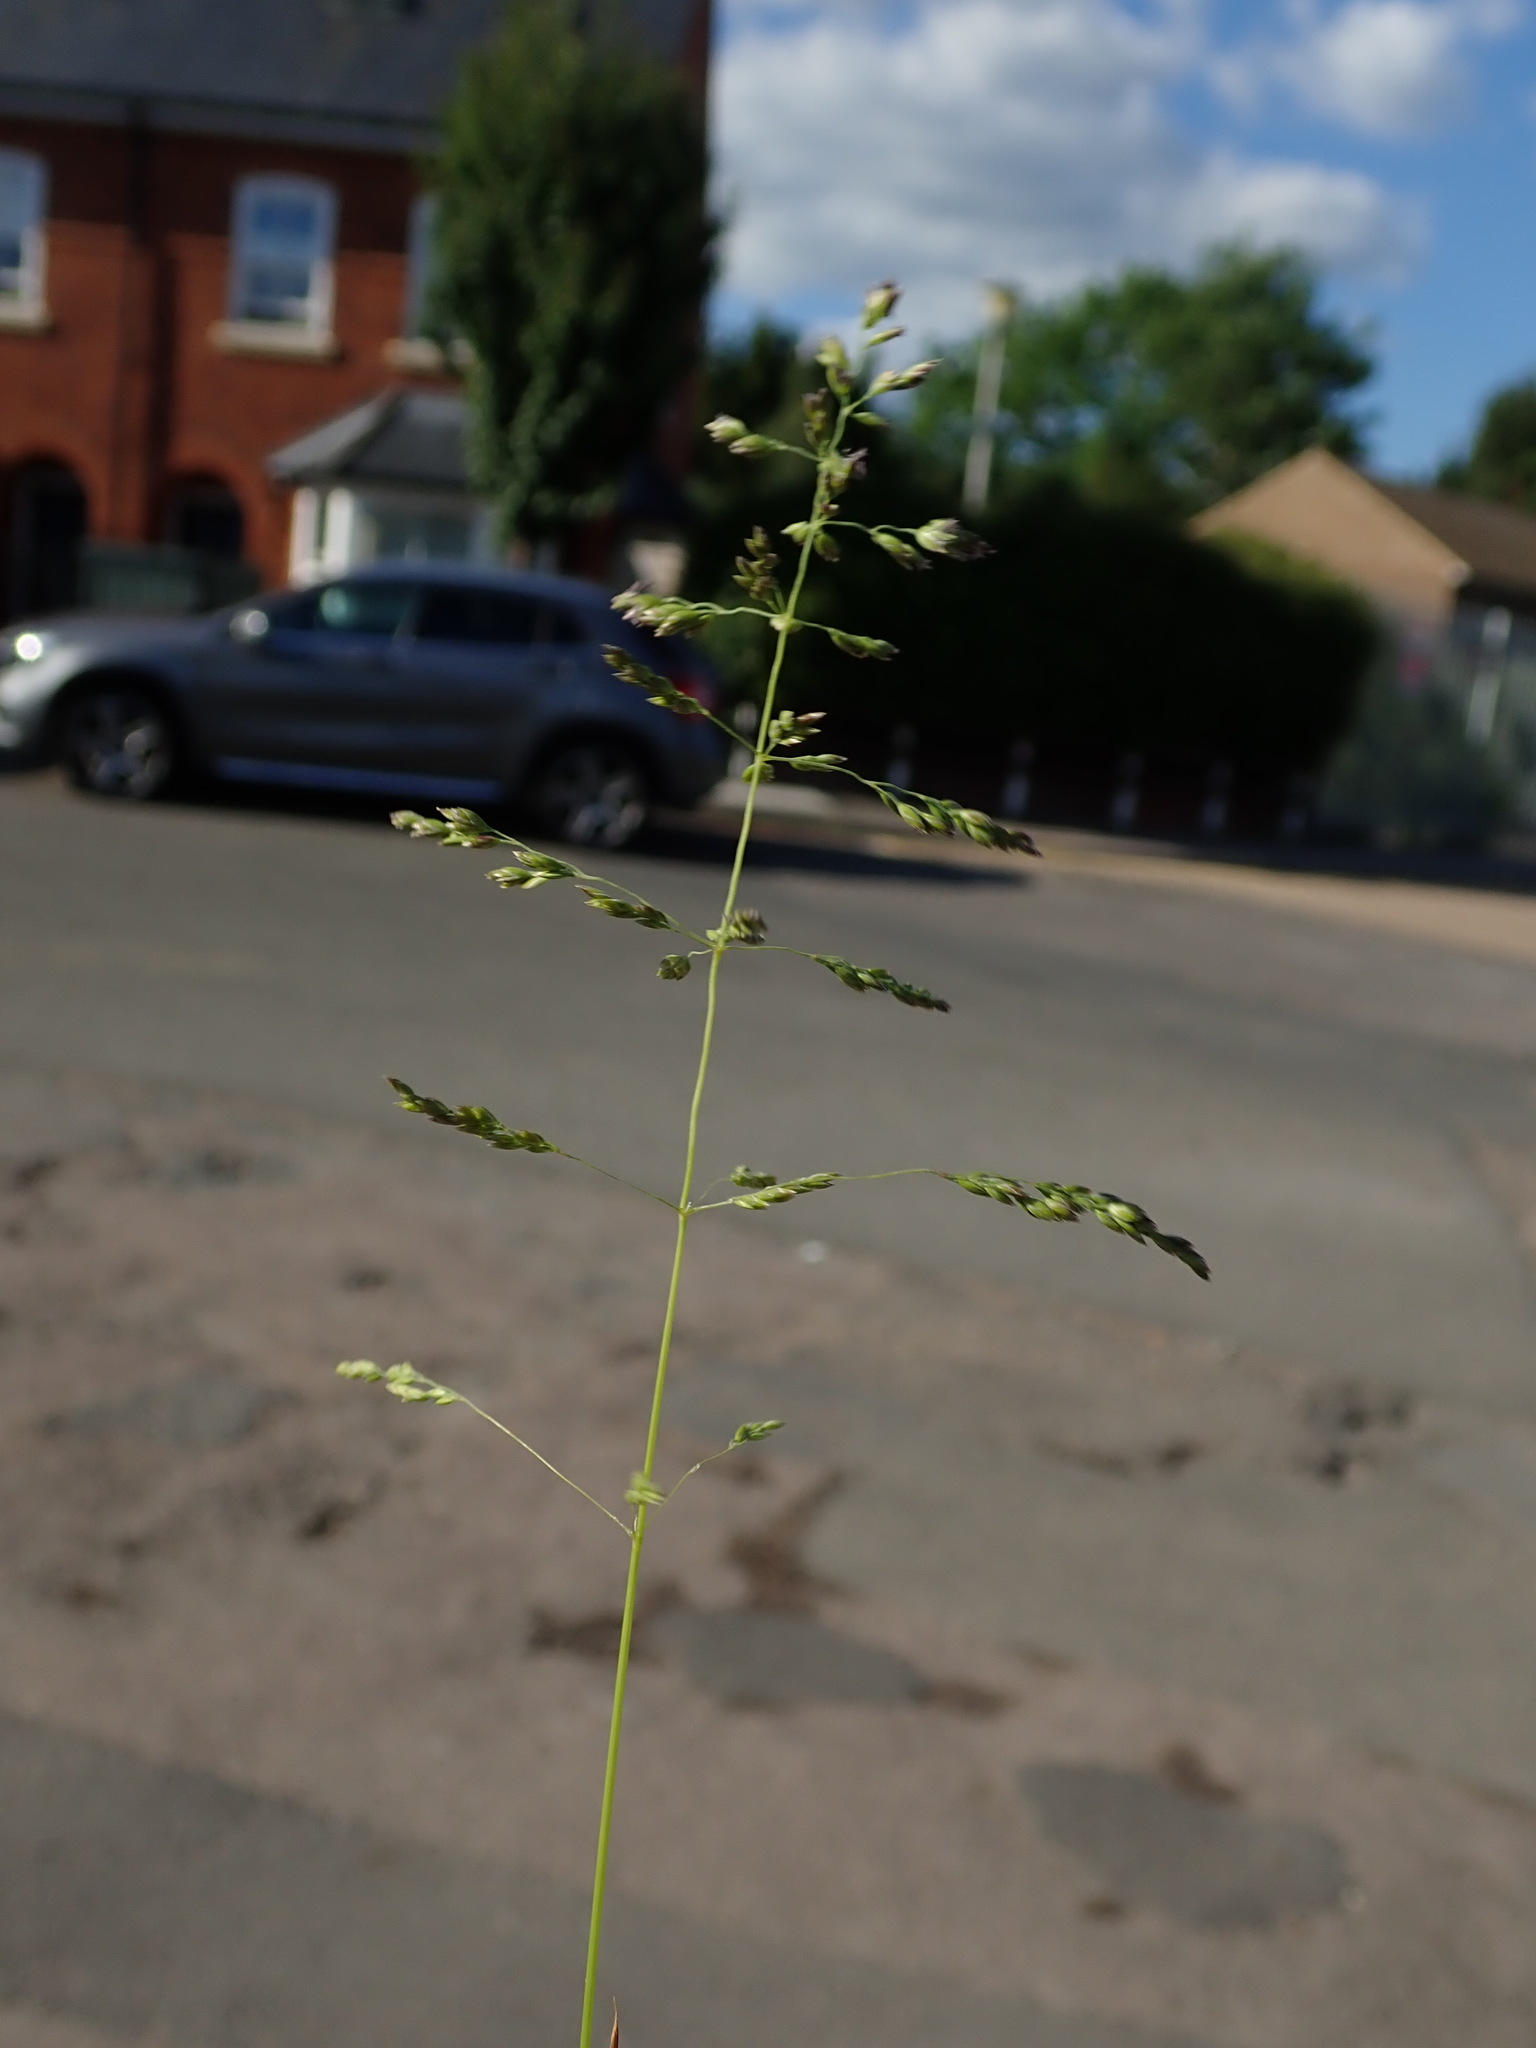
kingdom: Plantae
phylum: Tracheophyta
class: Liliopsida
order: Poales
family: Poaceae
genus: Poa
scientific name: Poa trivialis
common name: Rough bluegrass
